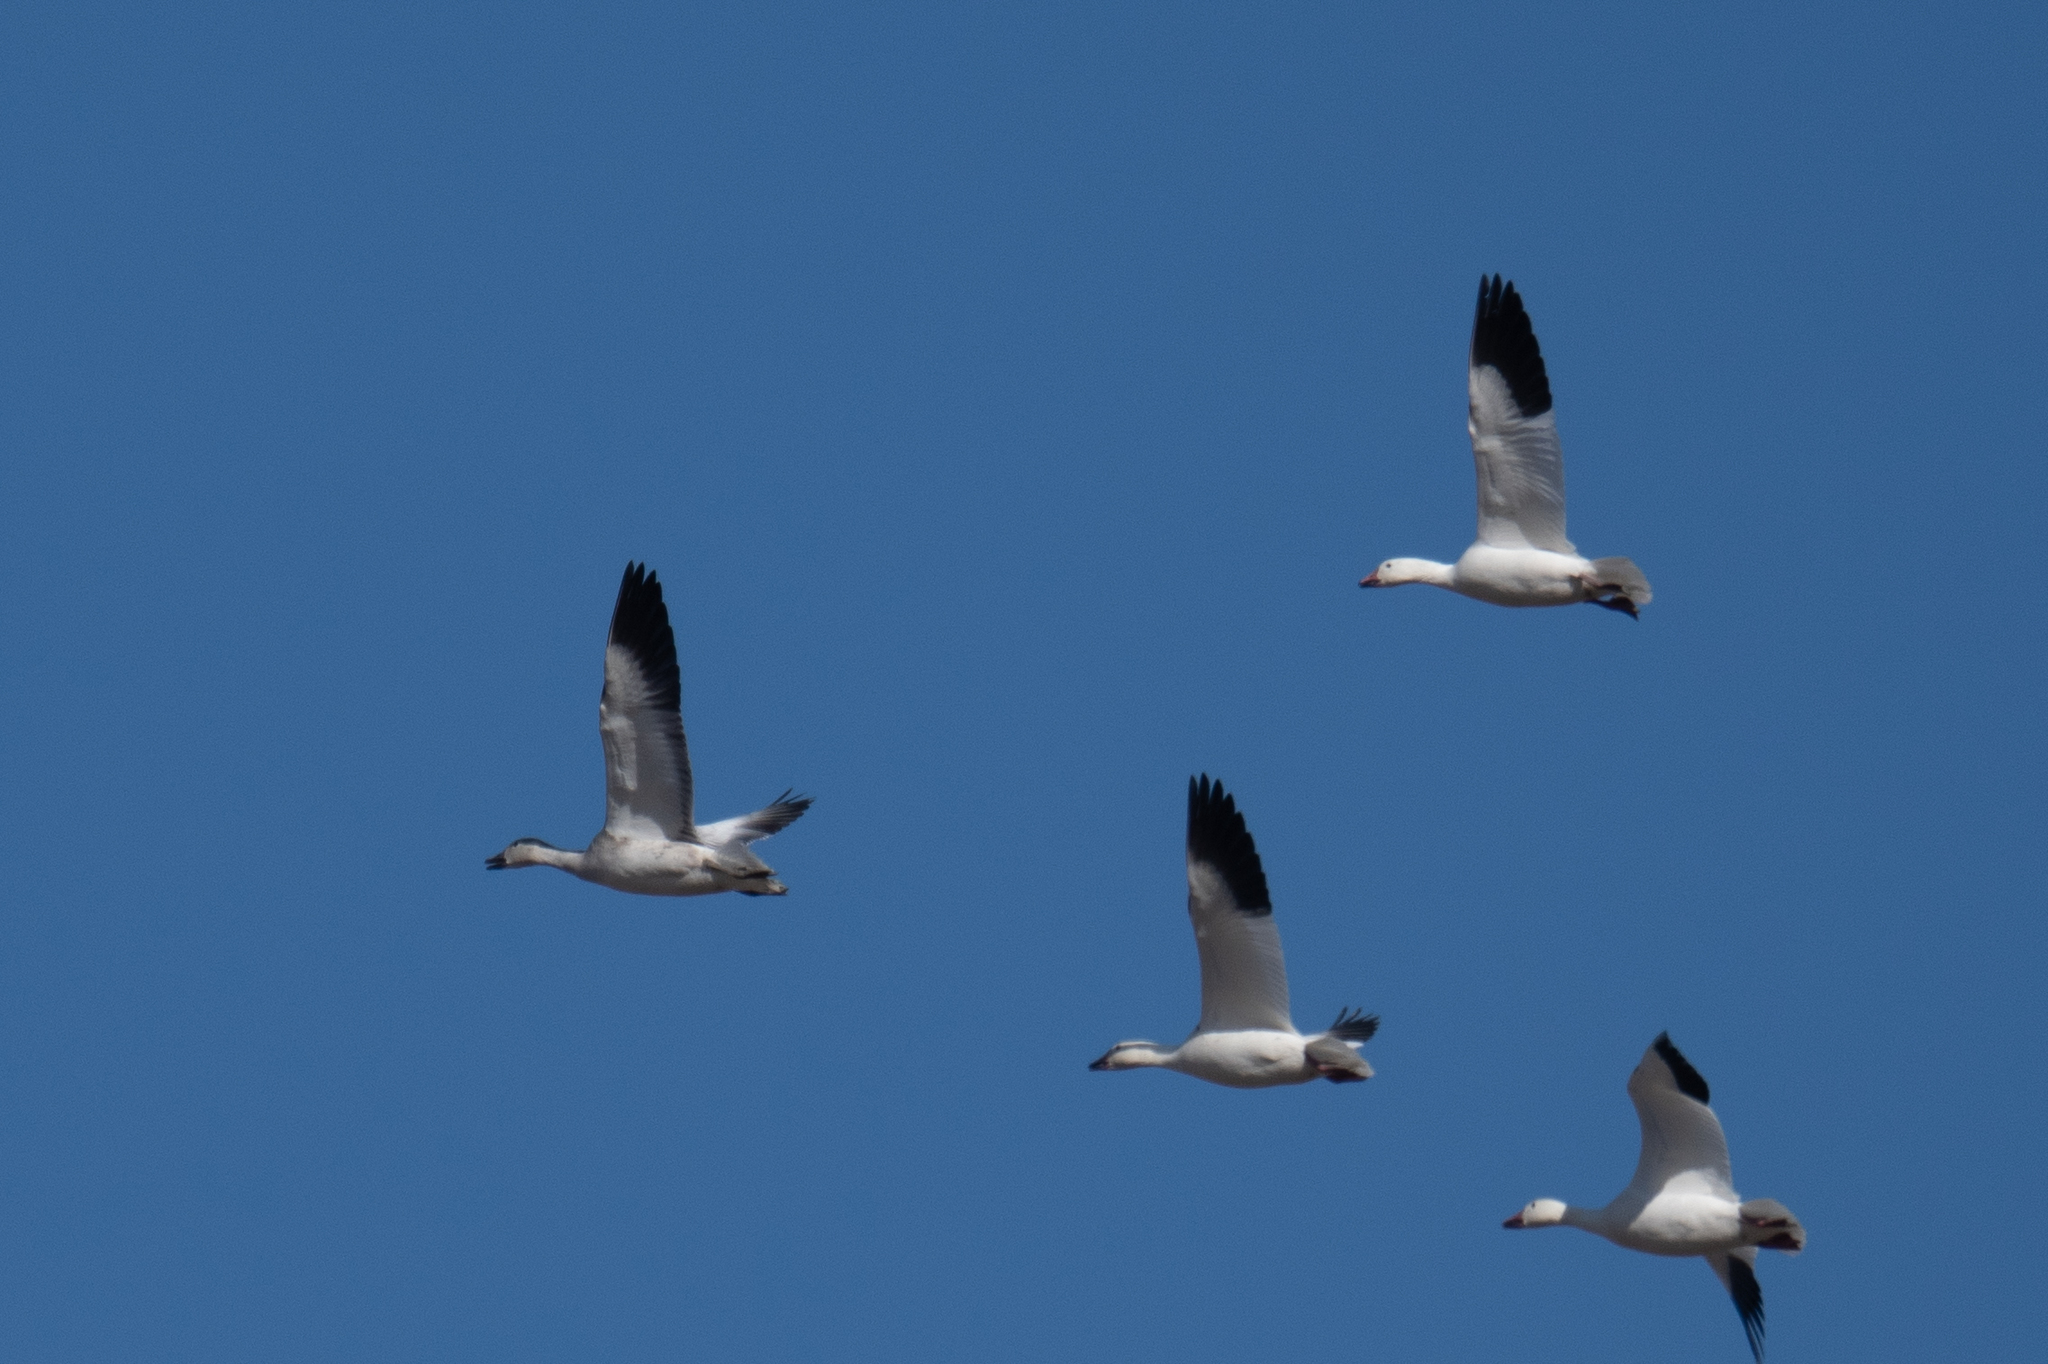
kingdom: Animalia
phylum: Chordata
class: Aves
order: Anseriformes
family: Anatidae
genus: Anser
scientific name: Anser caerulescens
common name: Snow goose
